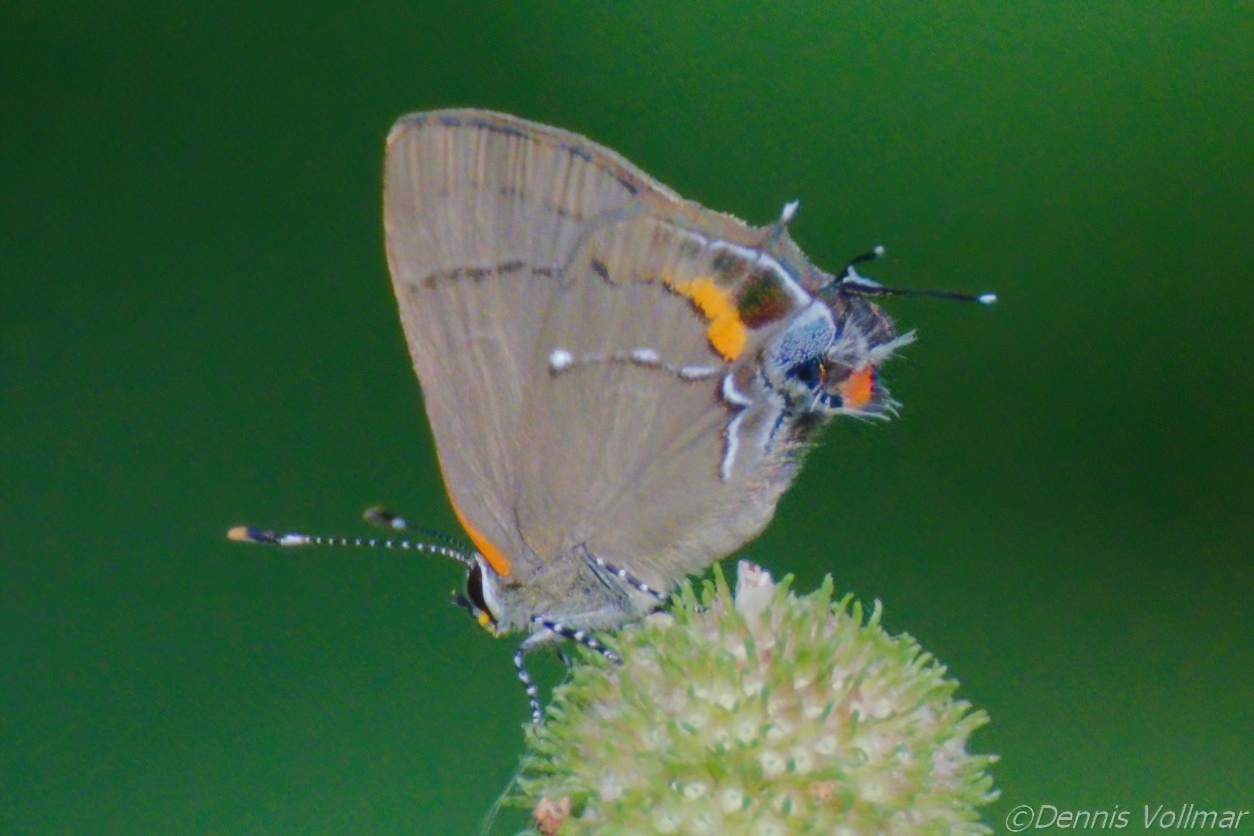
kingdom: Animalia
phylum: Arthropoda
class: Insecta
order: Lepidoptera
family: Lycaenidae
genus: Thecla
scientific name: Thecla angelia
